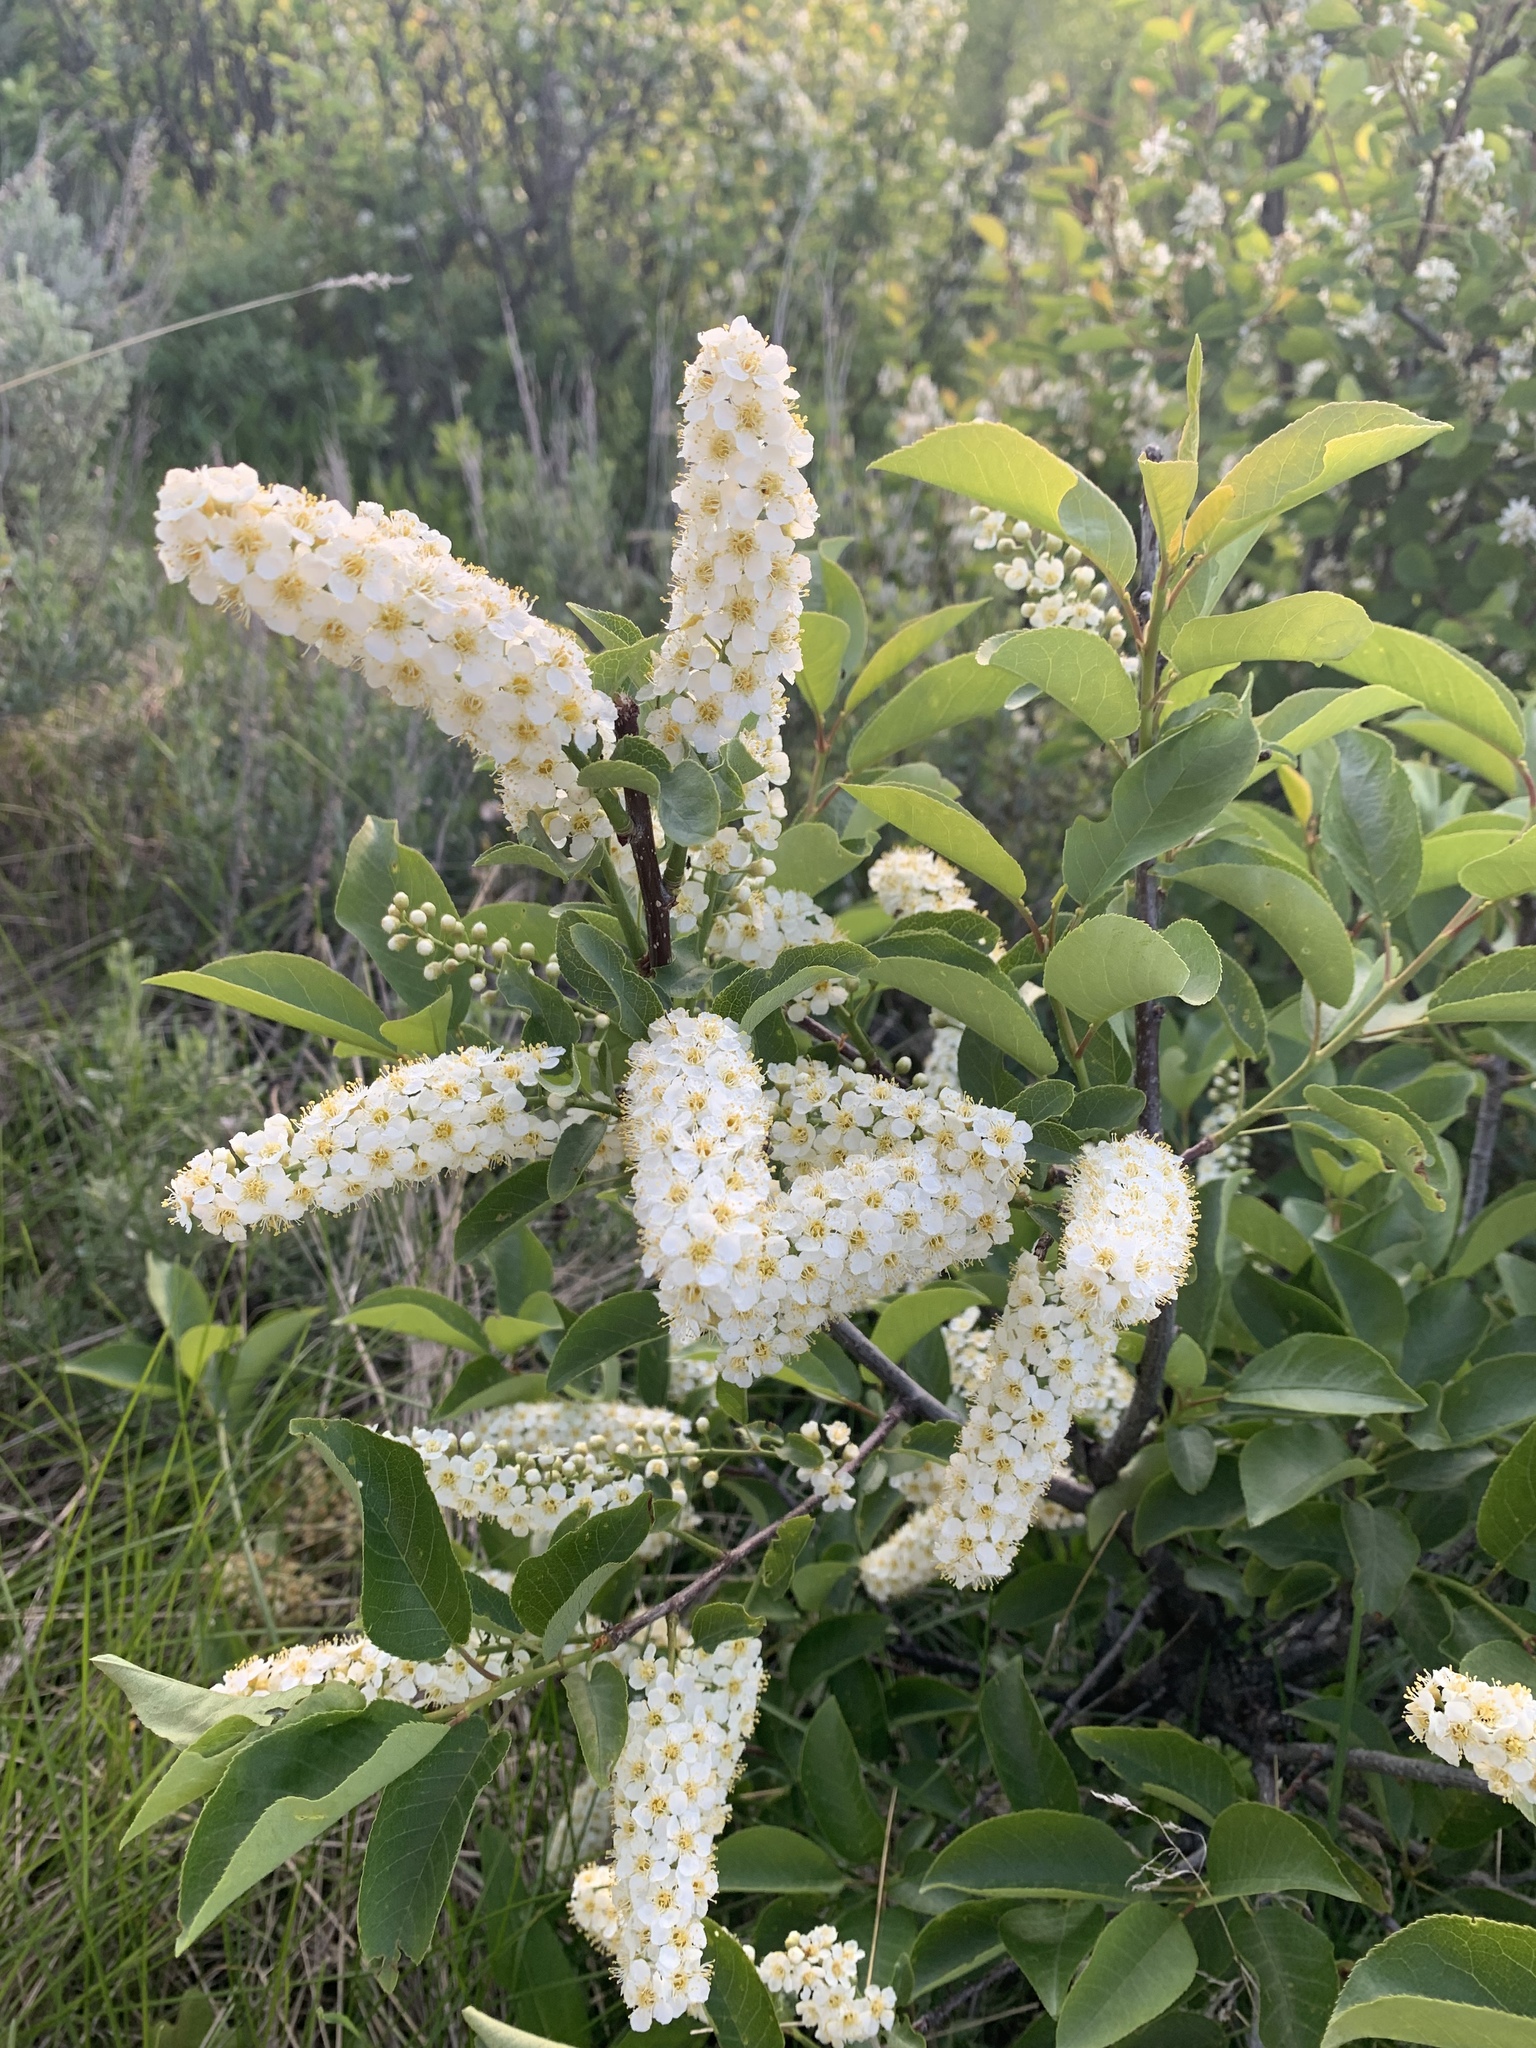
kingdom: Plantae
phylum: Tracheophyta
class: Magnoliopsida
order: Rosales
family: Rosaceae
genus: Prunus
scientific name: Prunus virginiana
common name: Chokecherry
